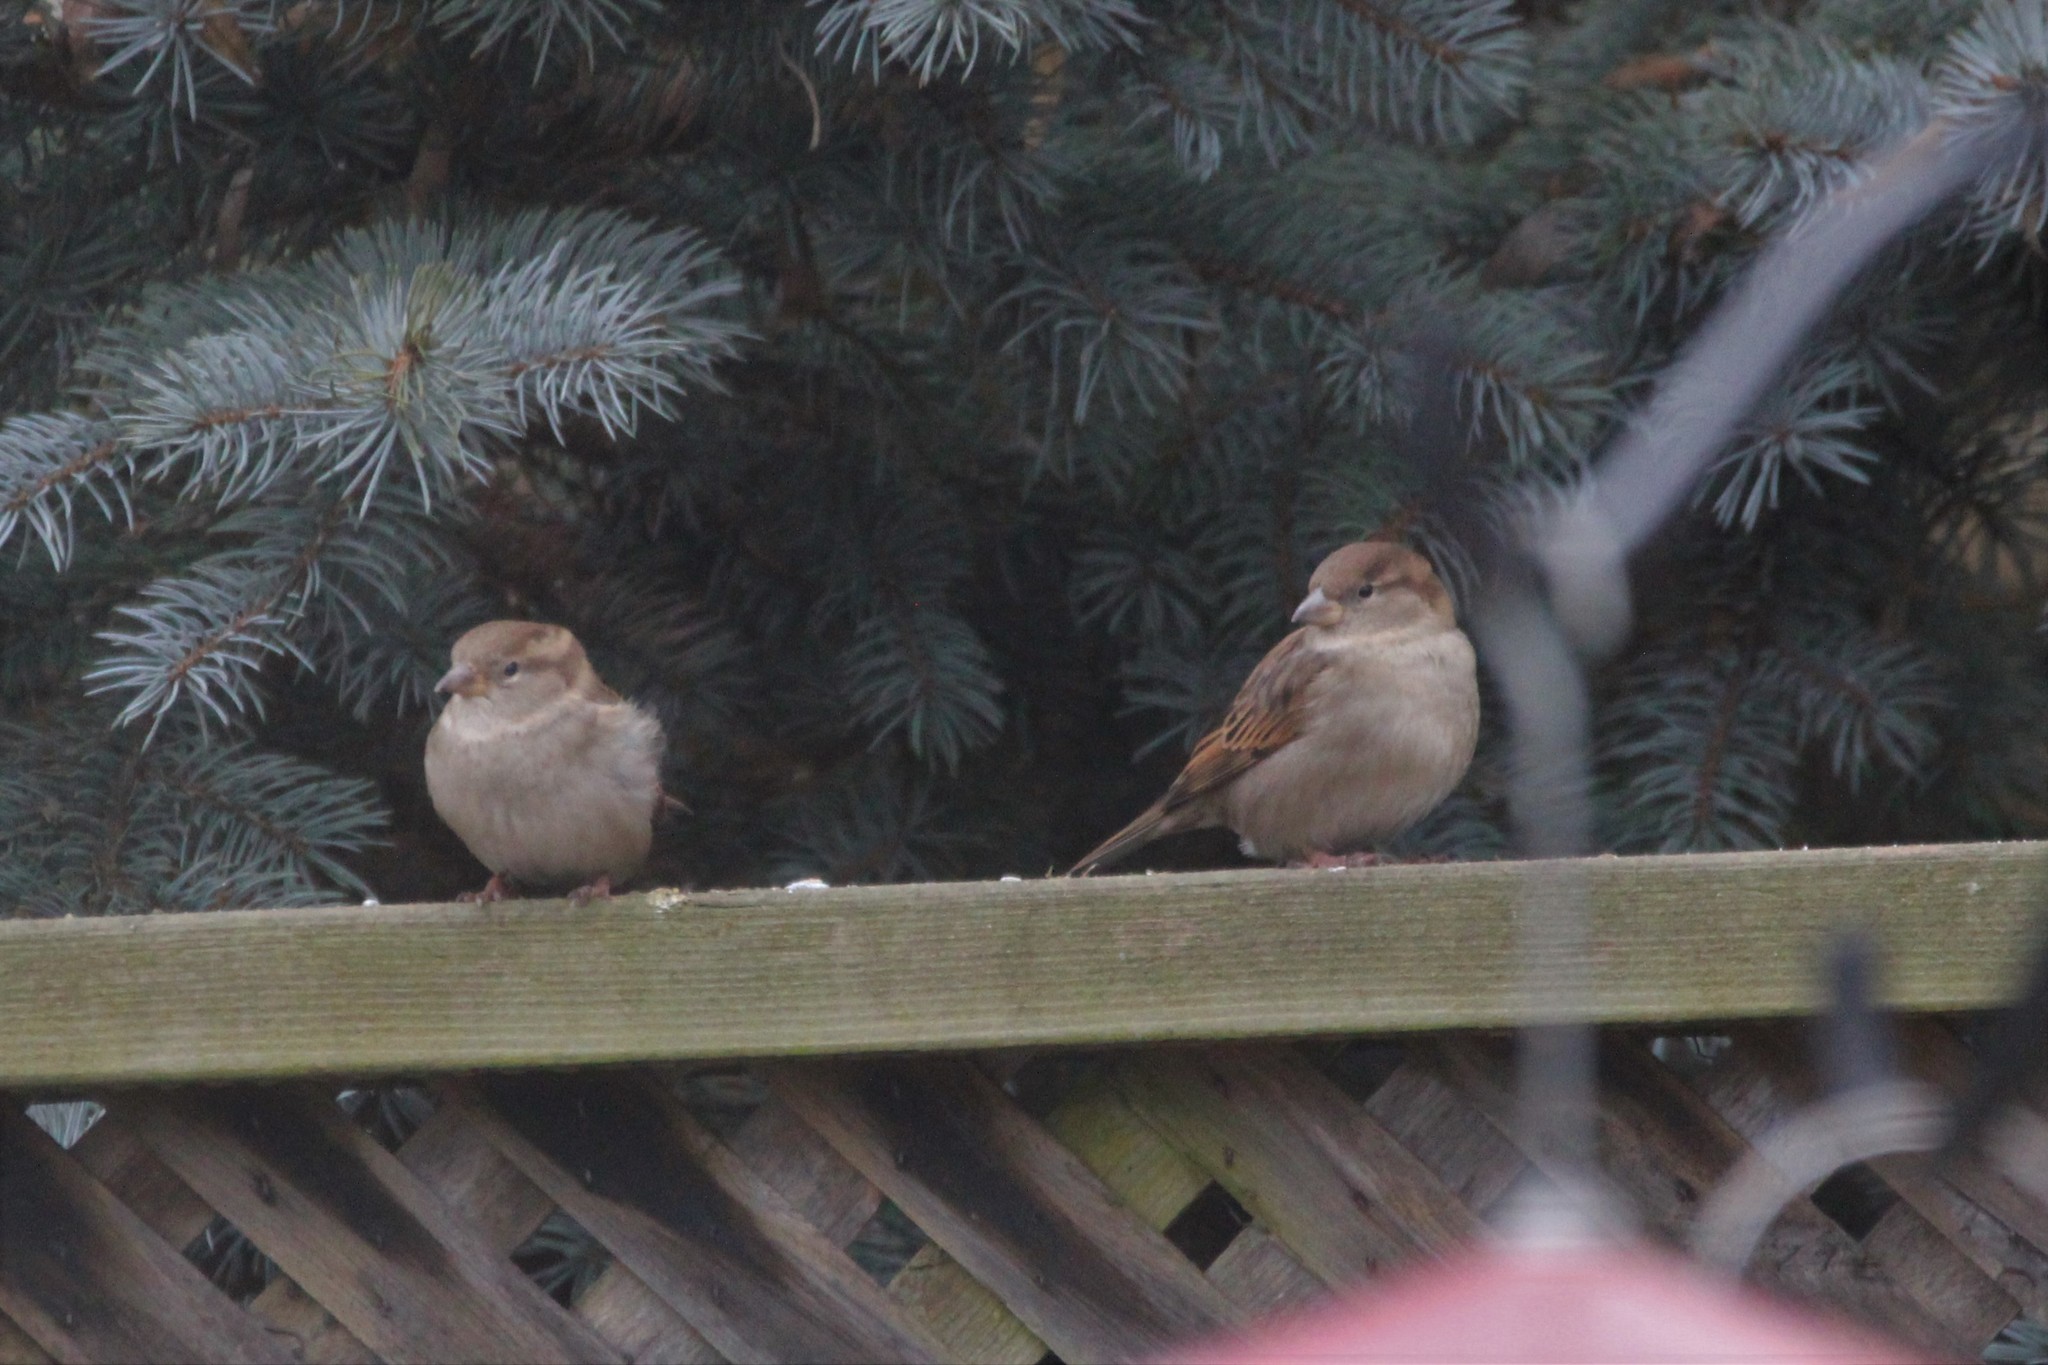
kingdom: Animalia
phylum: Chordata
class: Aves
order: Passeriformes
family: Passeridae
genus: Passer
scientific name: Passer domesticus
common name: House sparrow
